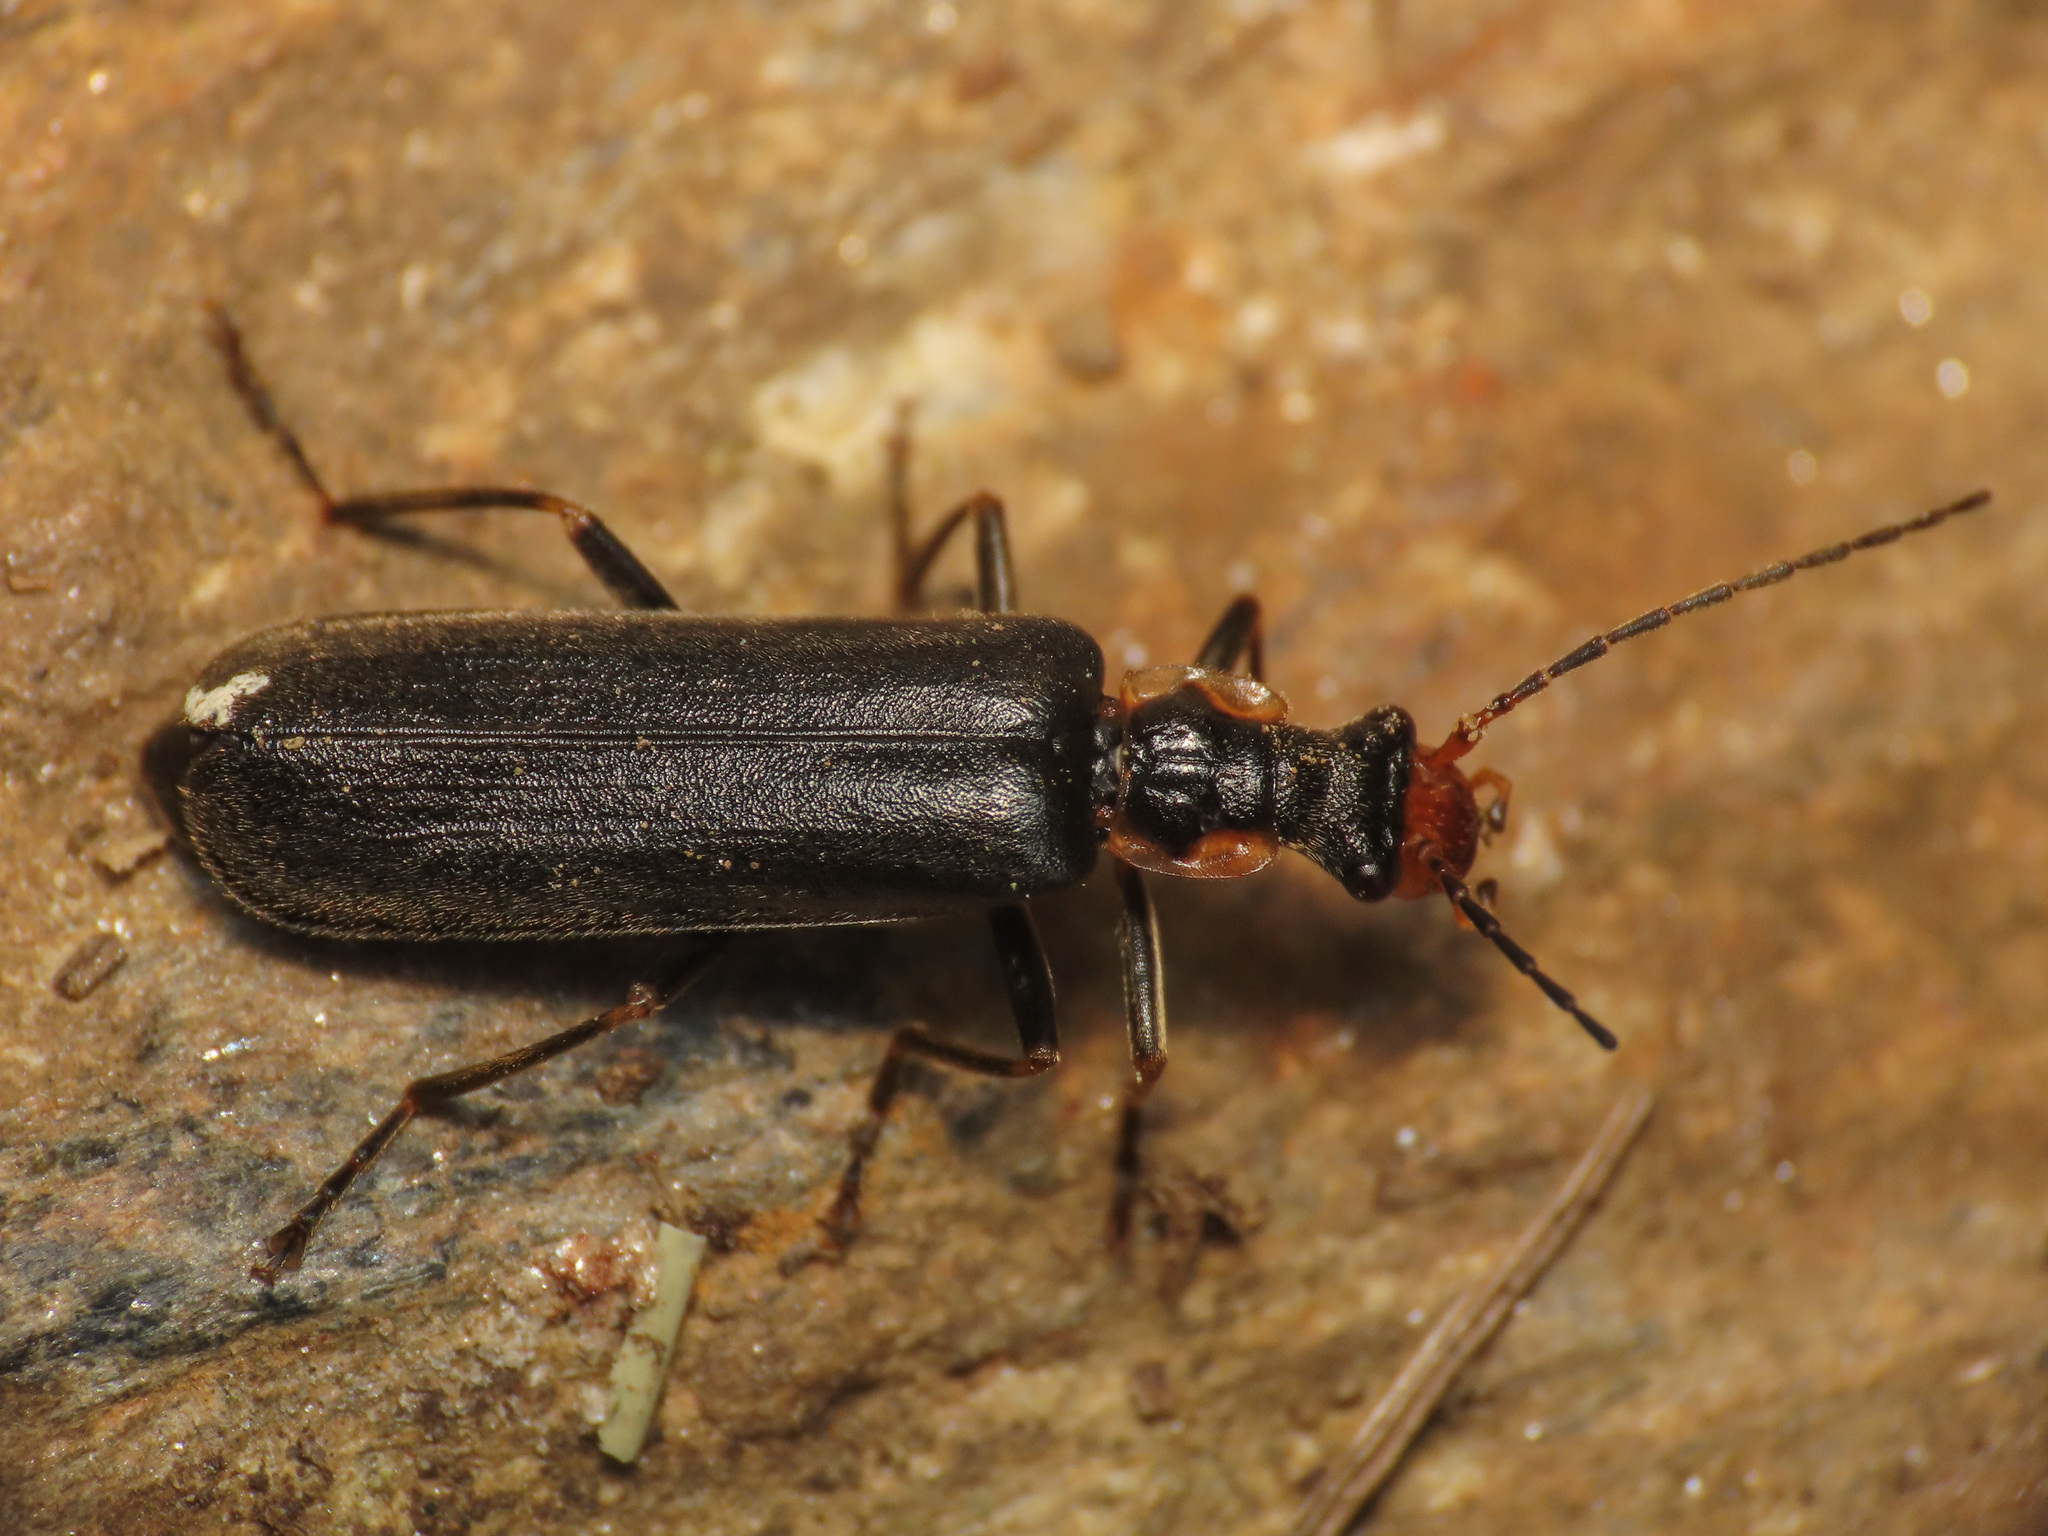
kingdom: Animalia
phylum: Arthropoda
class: Insecta
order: Coleoptera
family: Cantharidae
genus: Podabrus
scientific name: Podabrus alpinus
